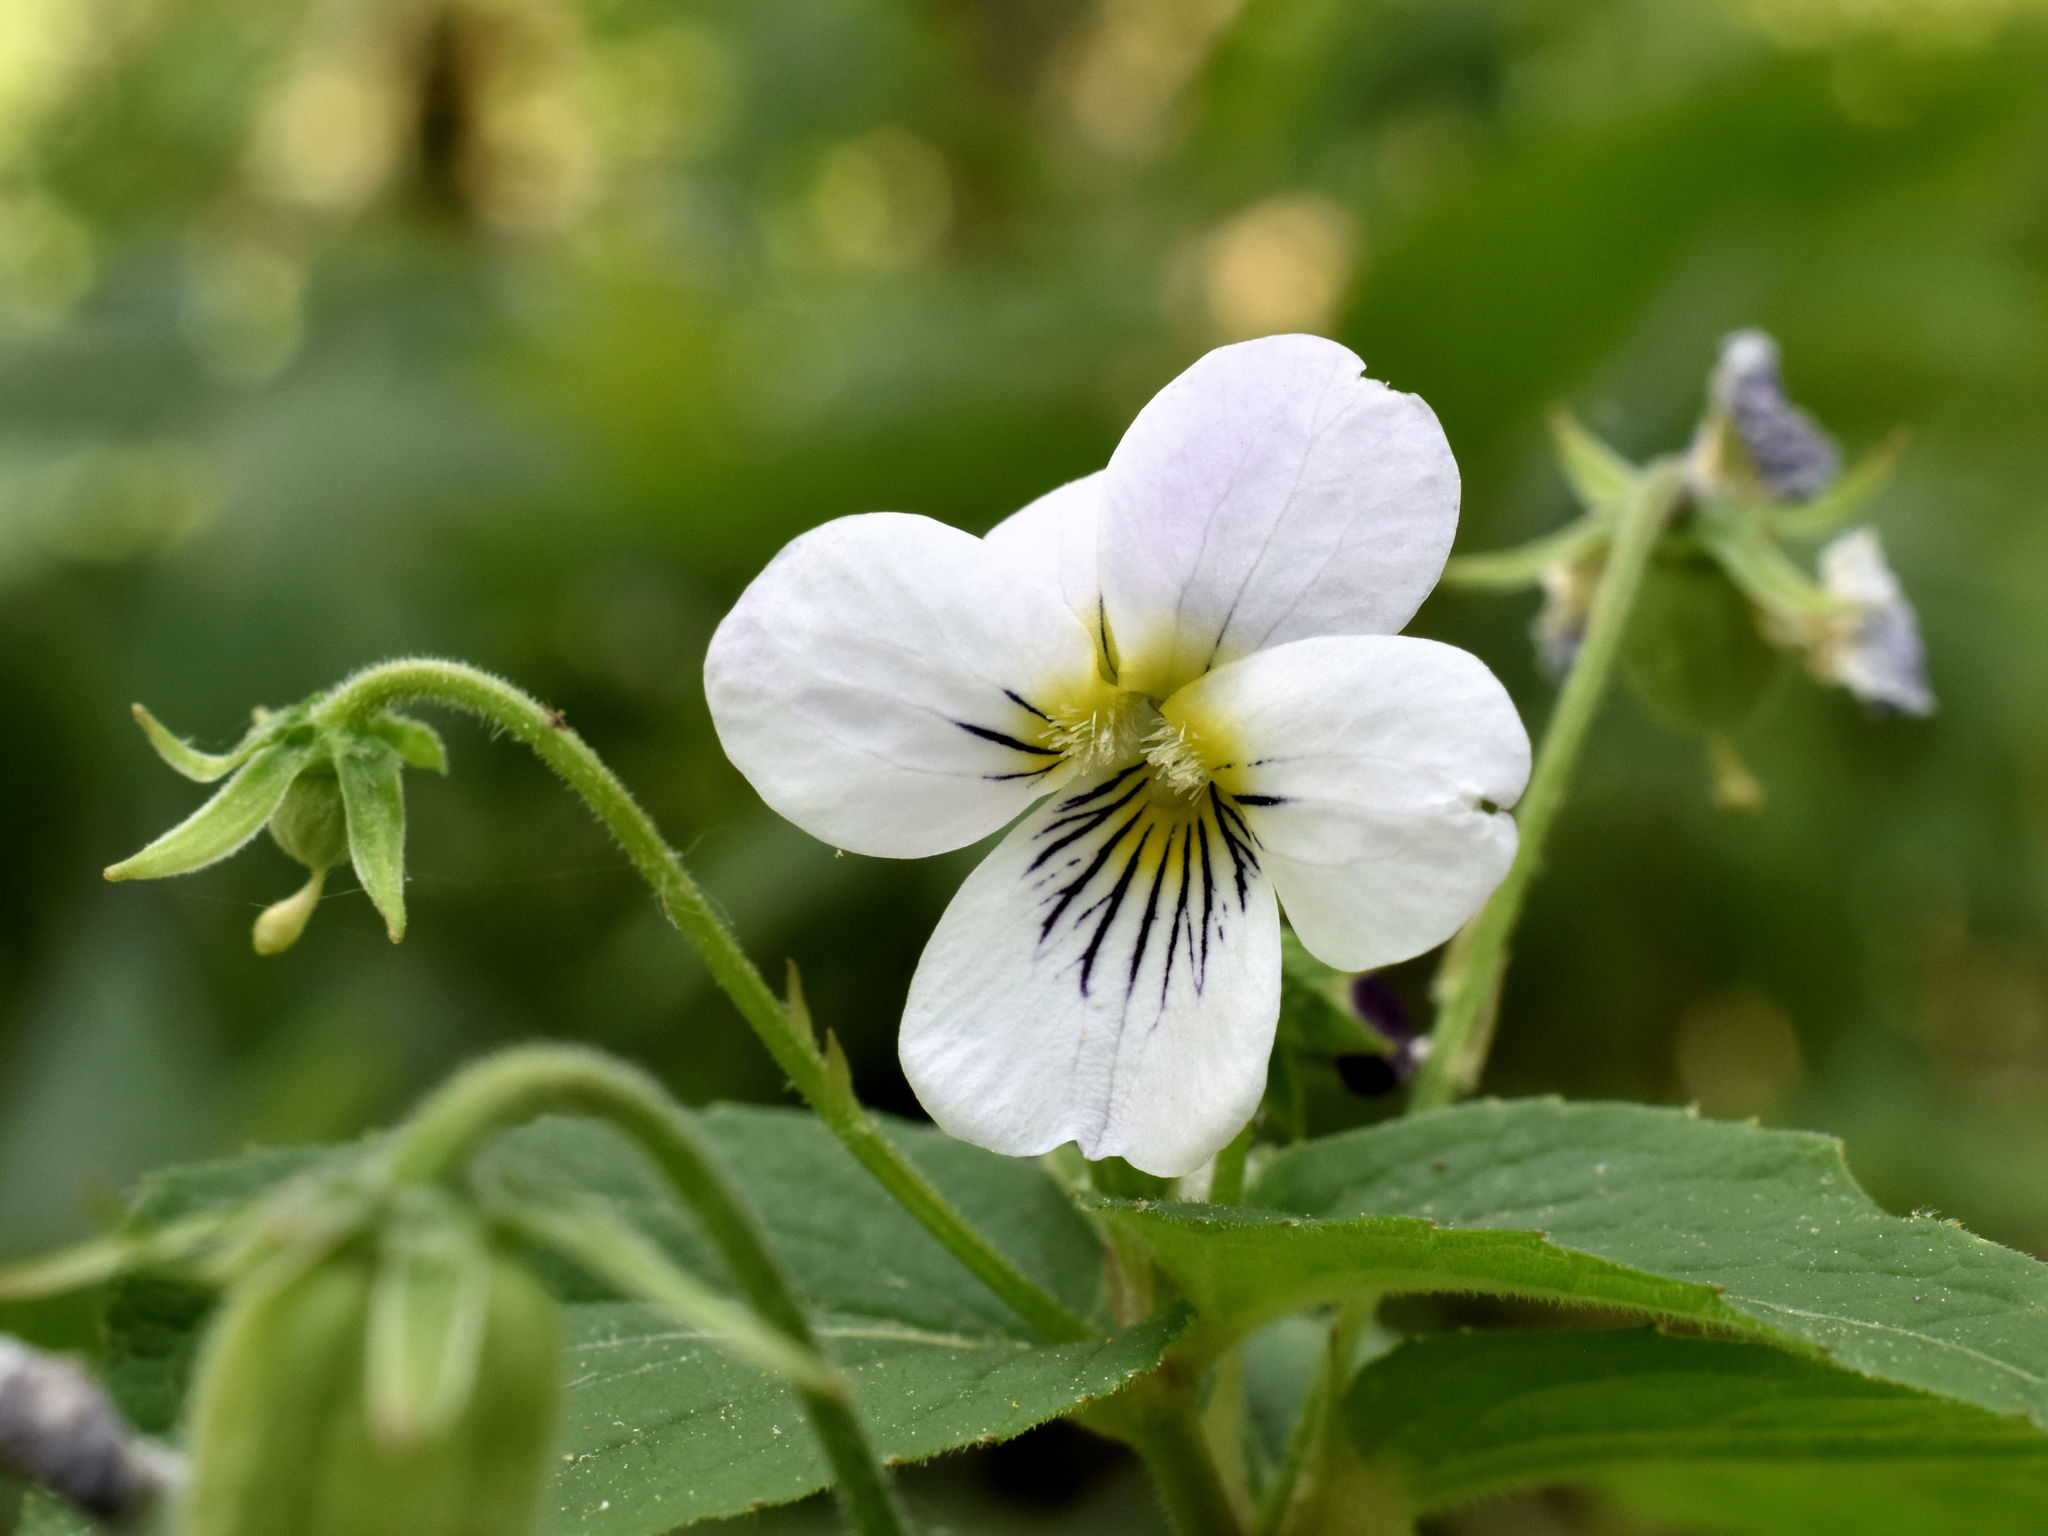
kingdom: Plantae
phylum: Tracheophyta
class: Magnoliopsida
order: Malpighiales
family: Violaceae
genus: Viola
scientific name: Viola canadensis
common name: Canada violet
